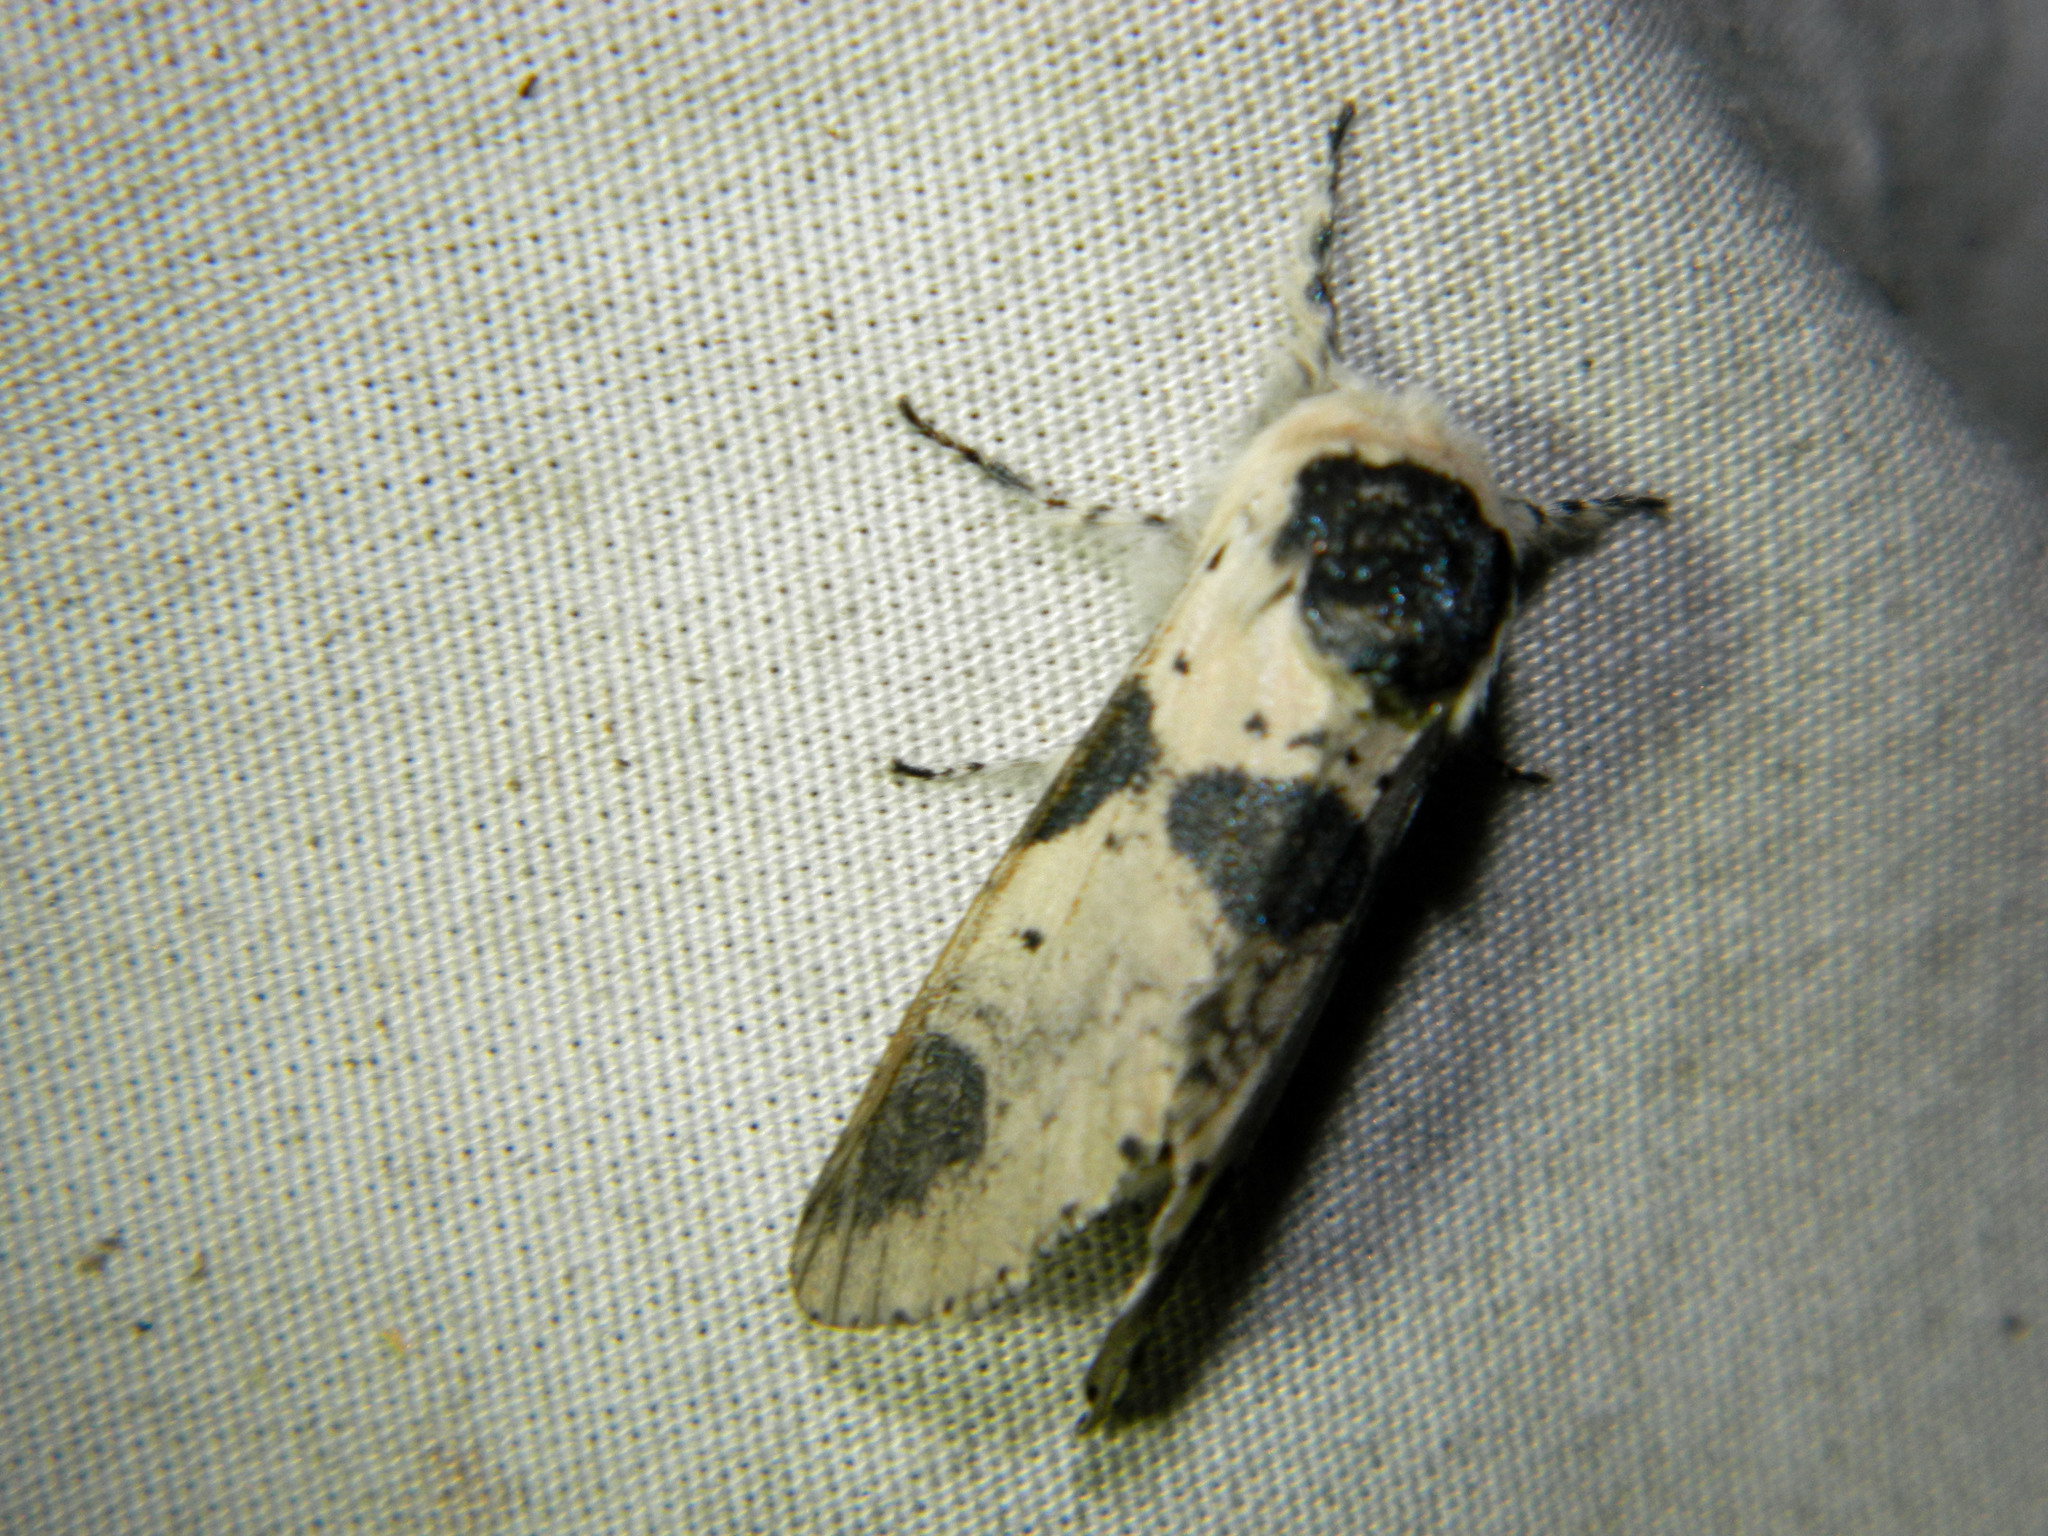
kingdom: Animalia
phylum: Arthropoda
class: Insecta
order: Lepidoptera
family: Notodontidae
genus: Furcula
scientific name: Furcula modesta
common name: Modest furcula moth
